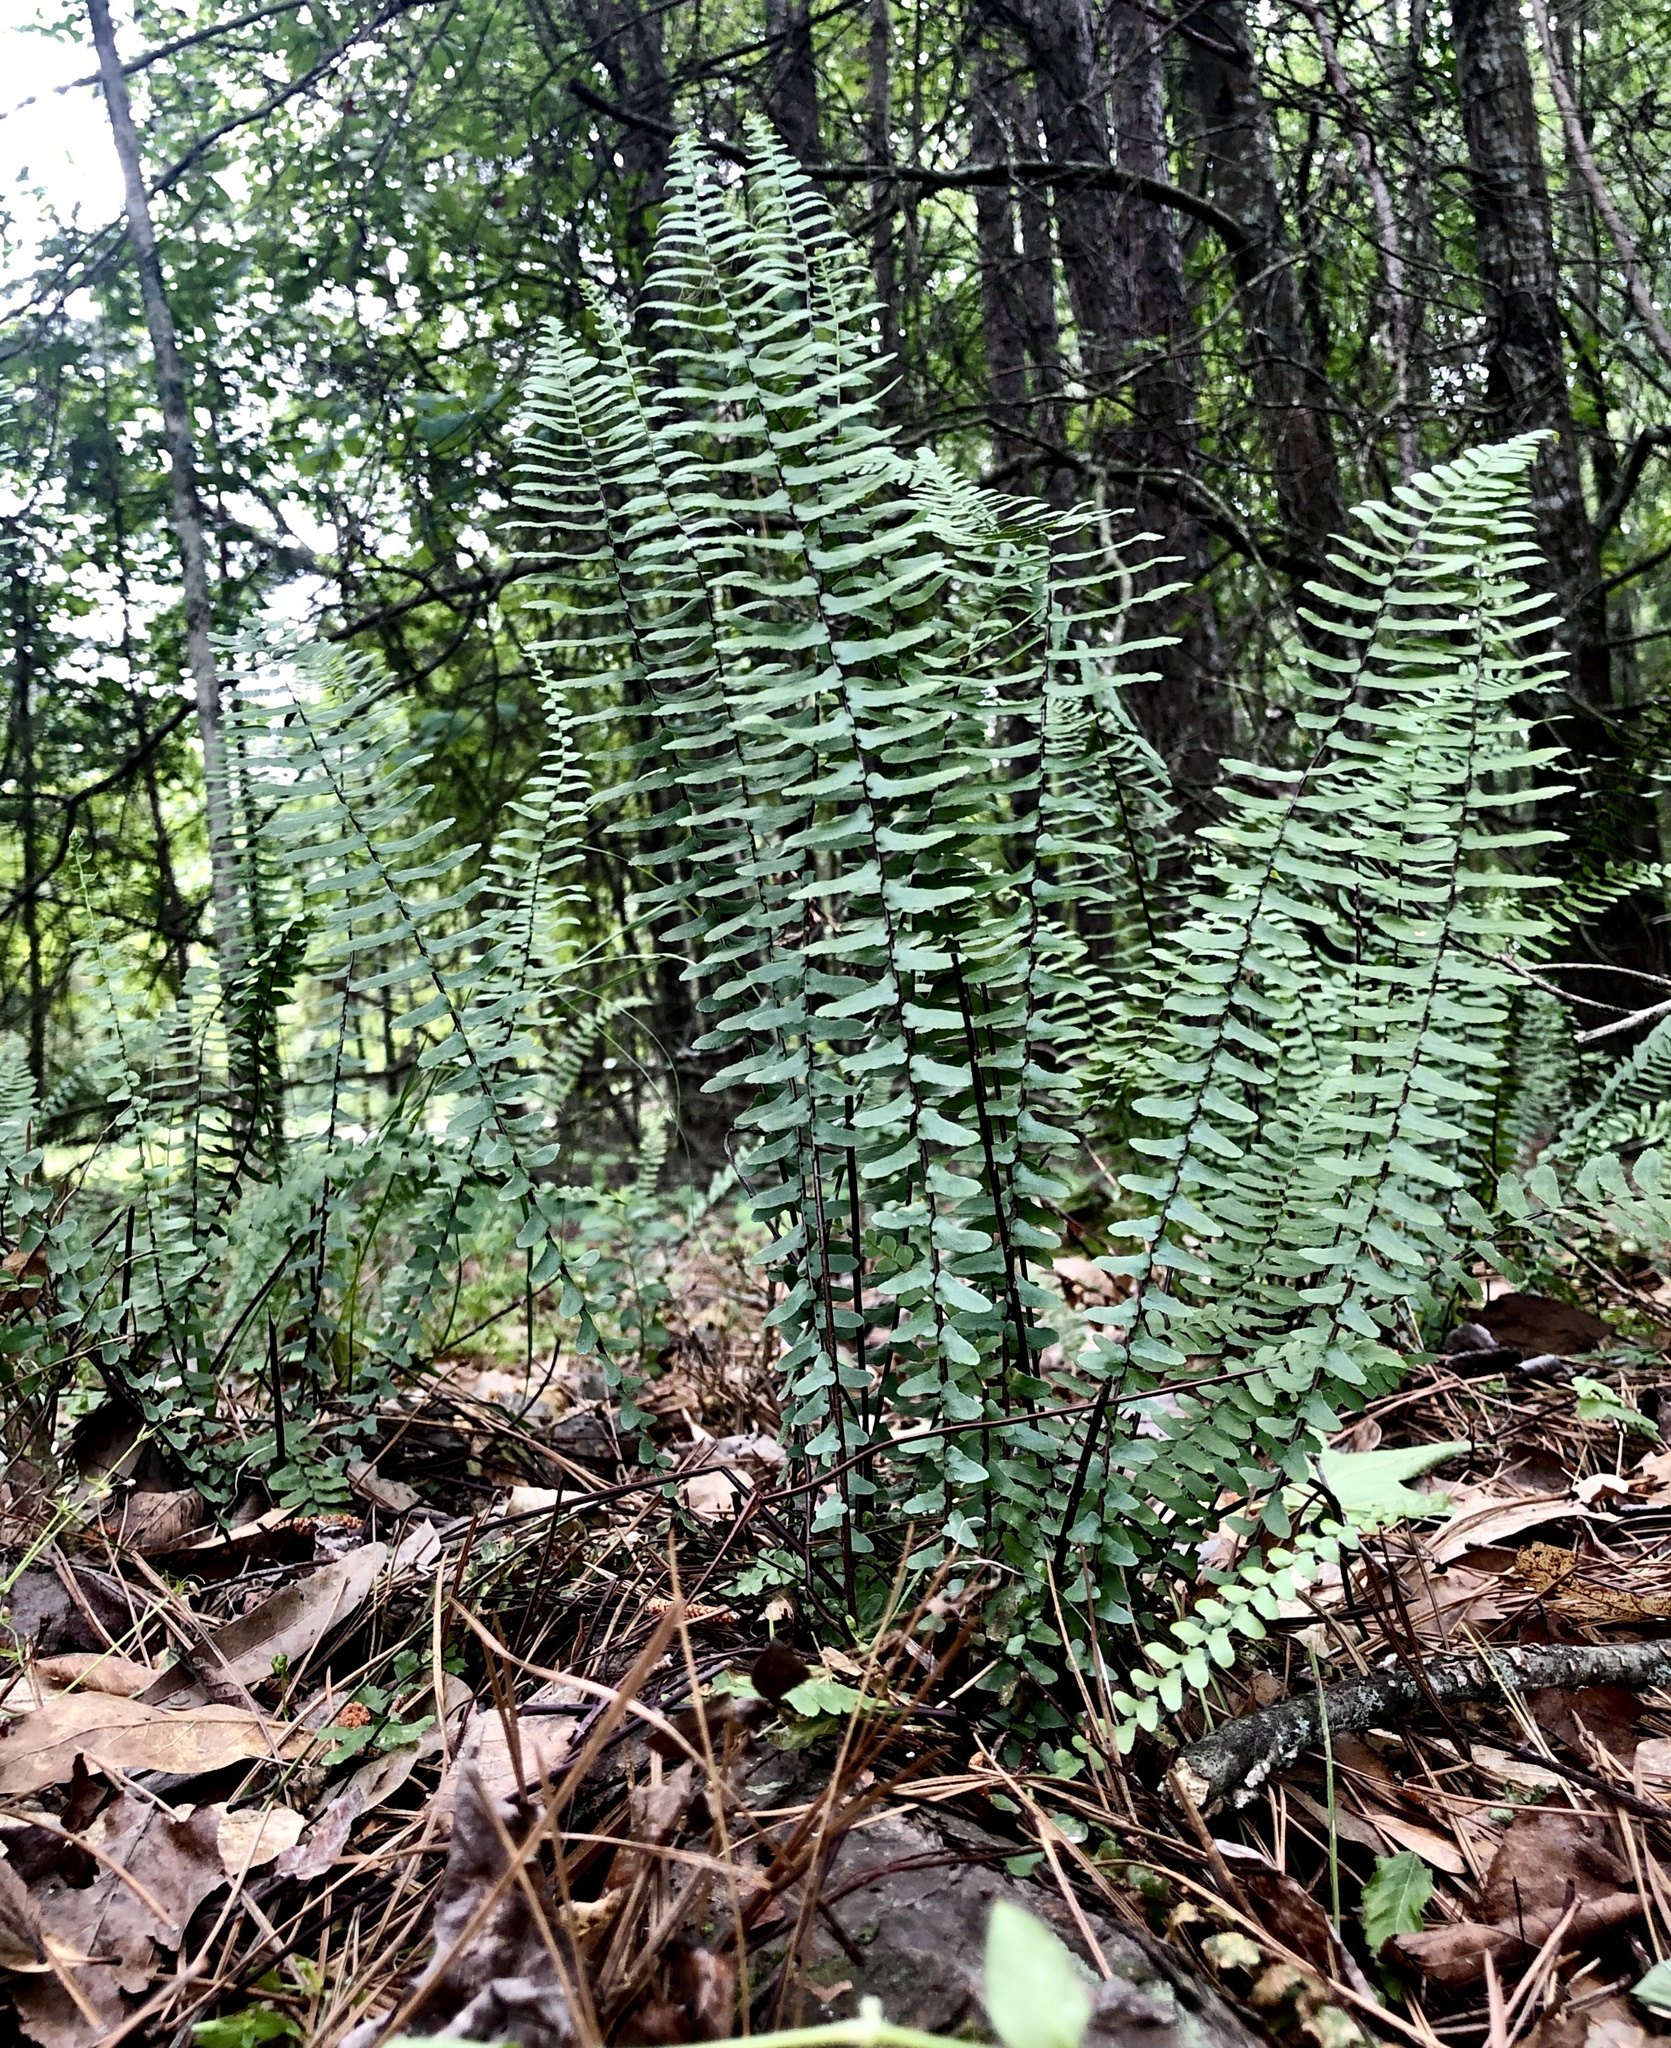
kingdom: Plantae
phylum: Tracheophyta
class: Polypodiopsida
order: Polypodiales
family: Aspleniaceae
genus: Asplenium
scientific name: Asplenium platyneuron
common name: Ebony spleenwort
